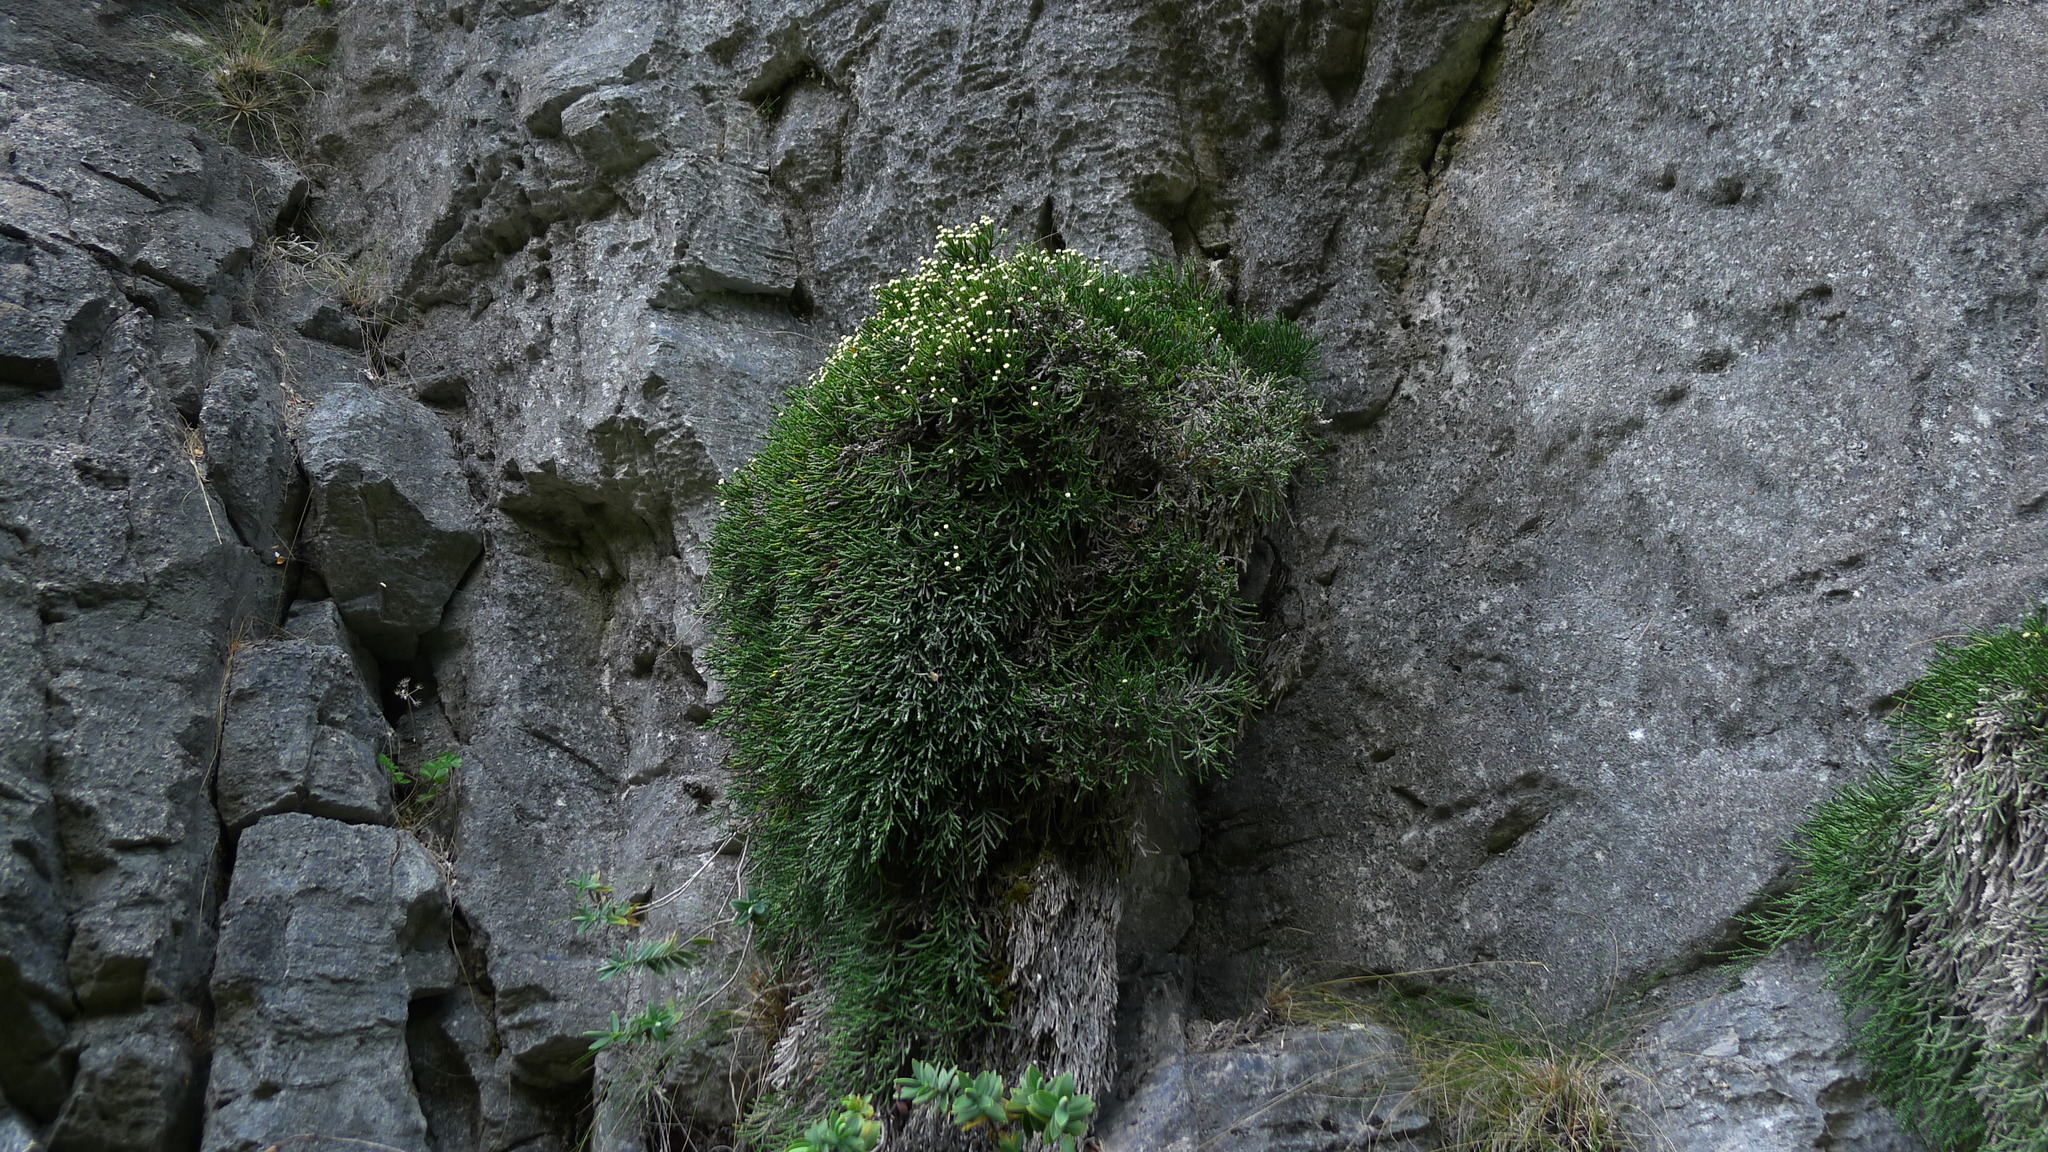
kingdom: Plantae
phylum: Tracheophyta
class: Magnoliopsida
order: Asterales
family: Asteraceae
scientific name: Asteraceae
